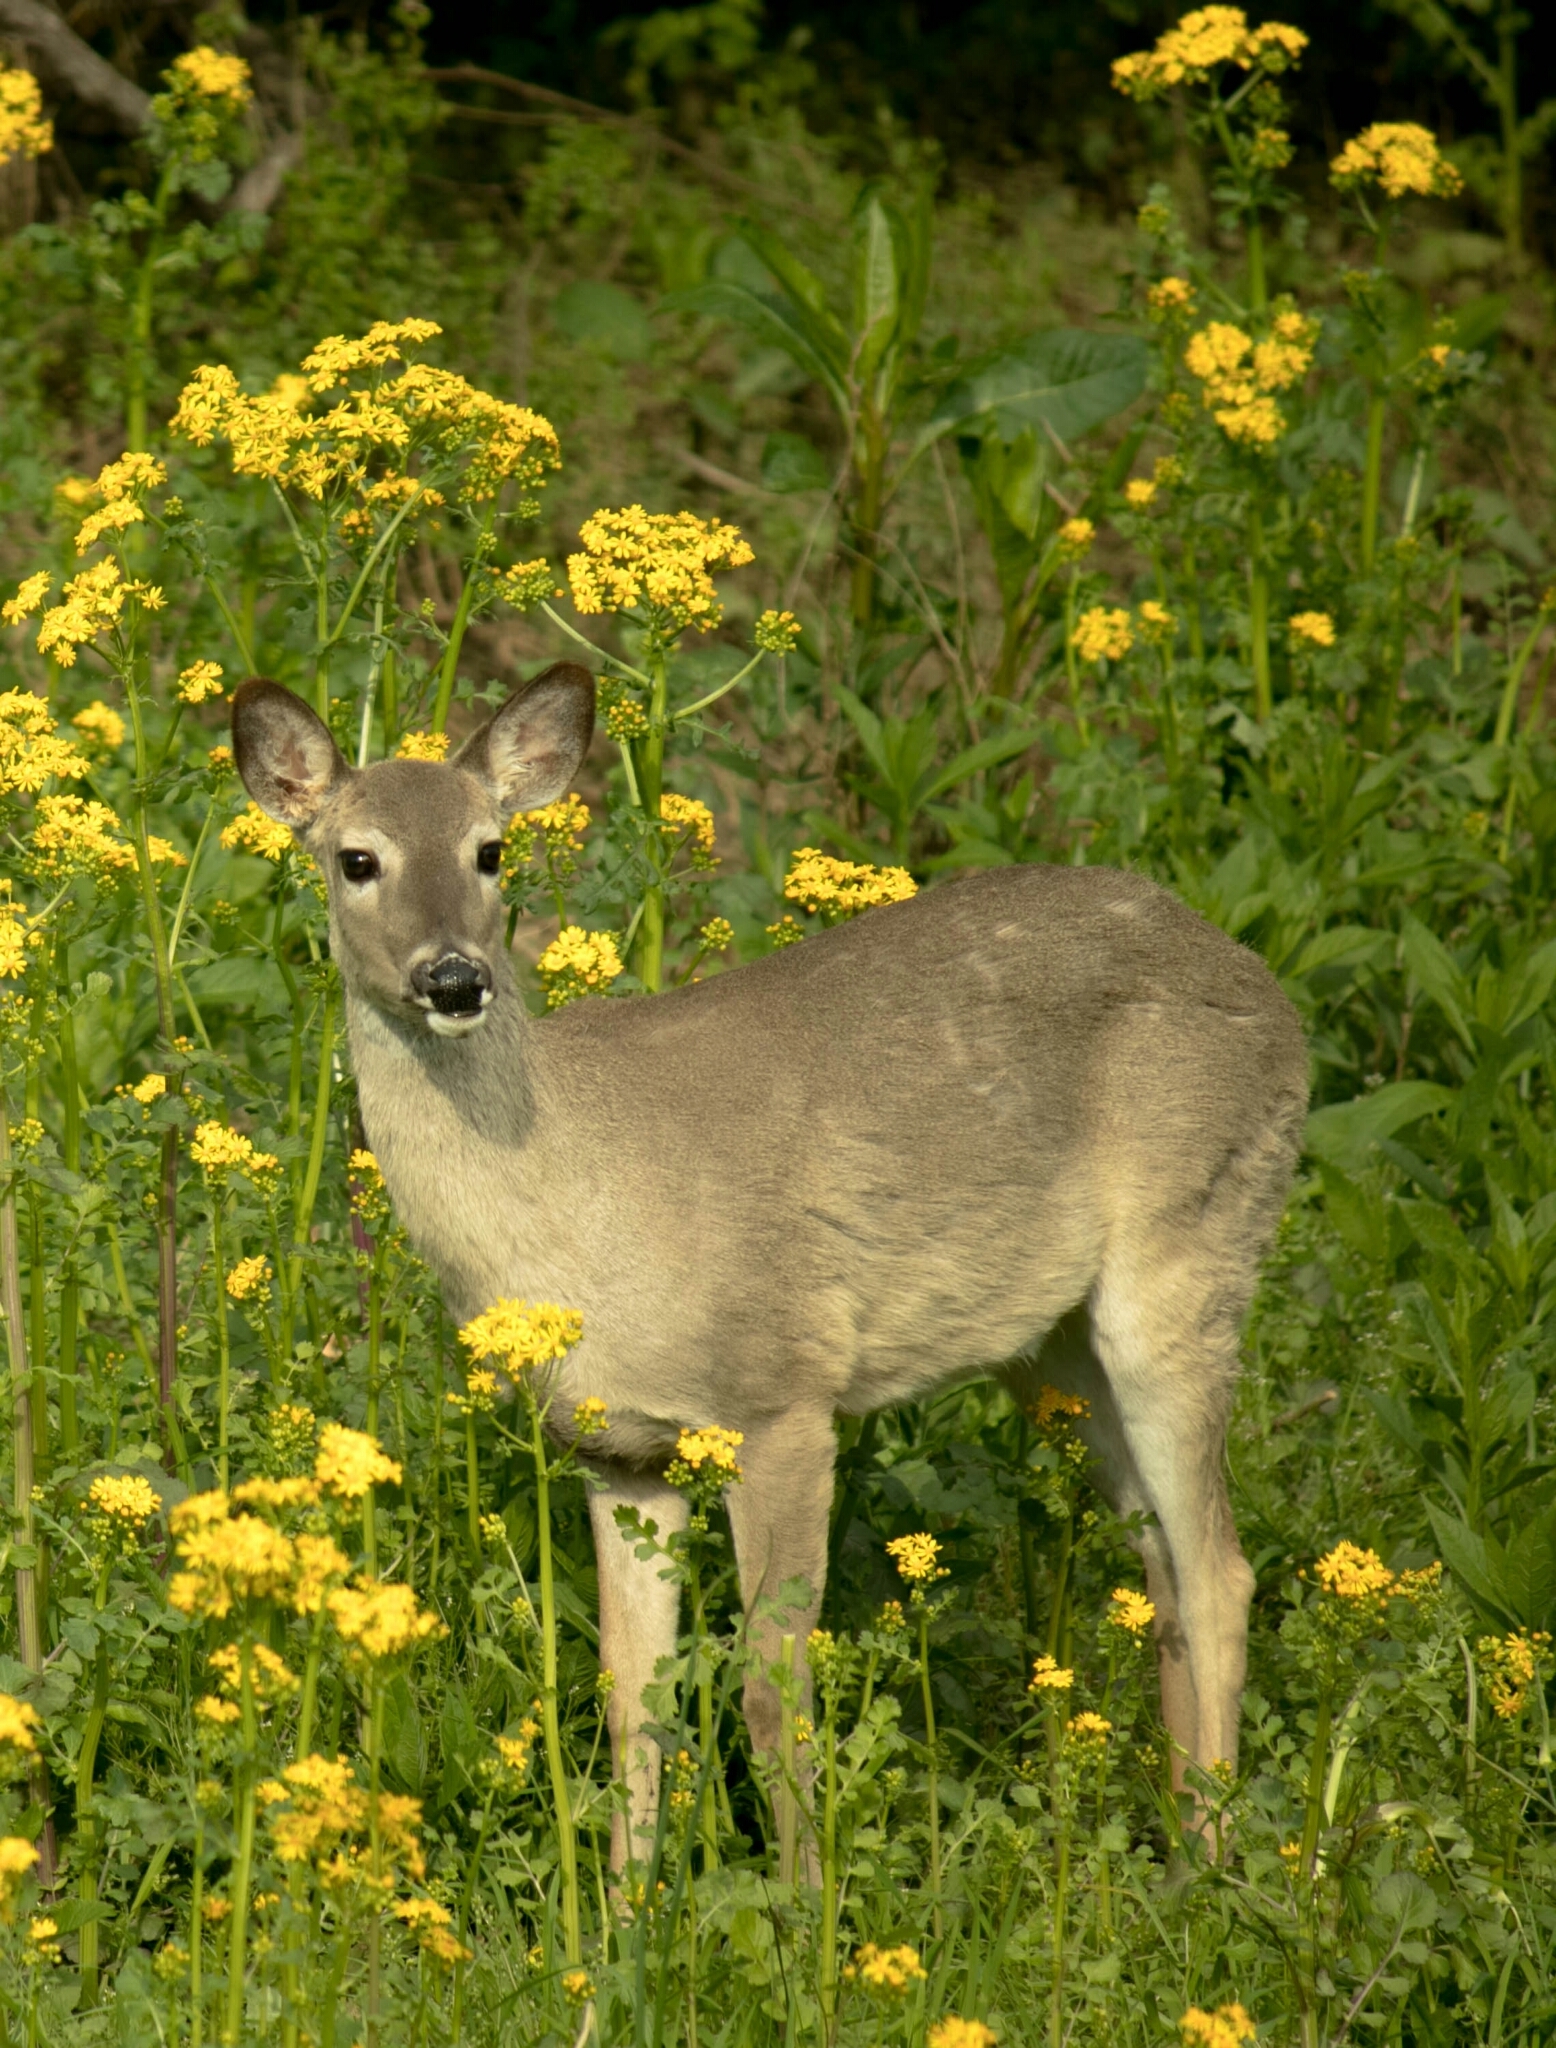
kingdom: Animalia
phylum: Chordata
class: Mammalia
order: Artiodactyla
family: Cervidae
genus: Odocoileus
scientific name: Odocoileus virginianus
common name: White-tailed deer
